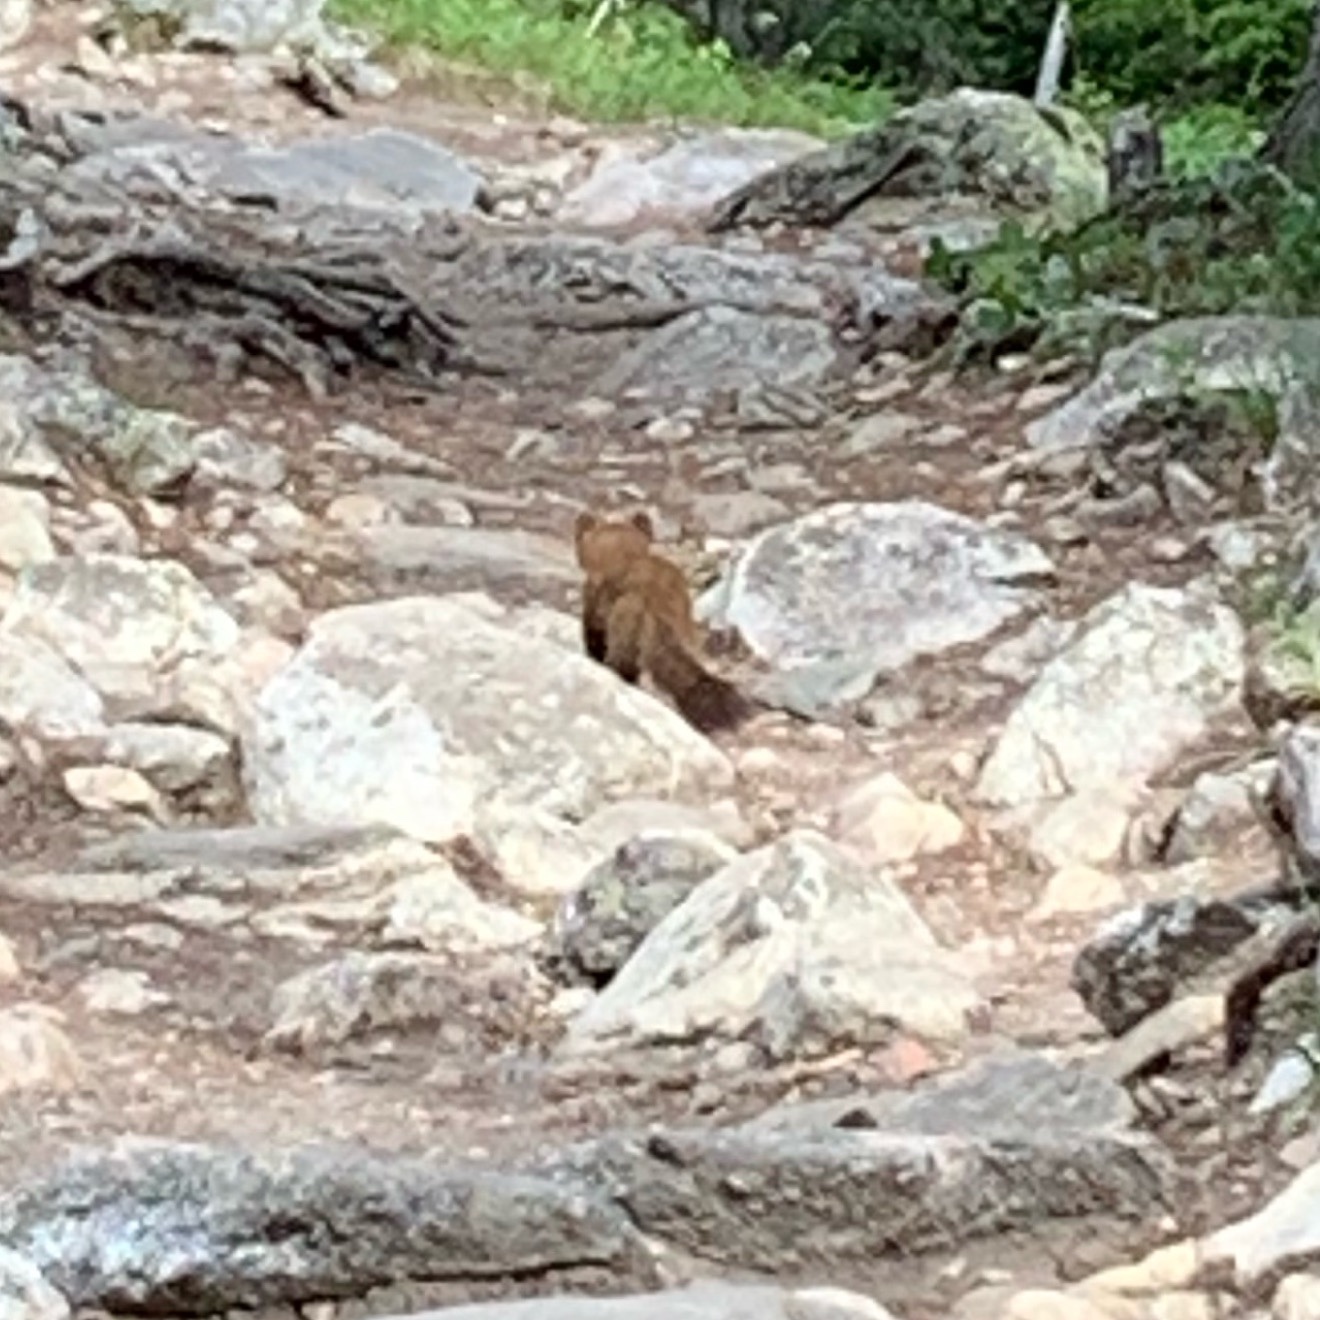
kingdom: Animalia
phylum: Chordata
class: Mammalia
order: Carnivora
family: Mustelidae
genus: Martes
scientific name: Martes caurina
